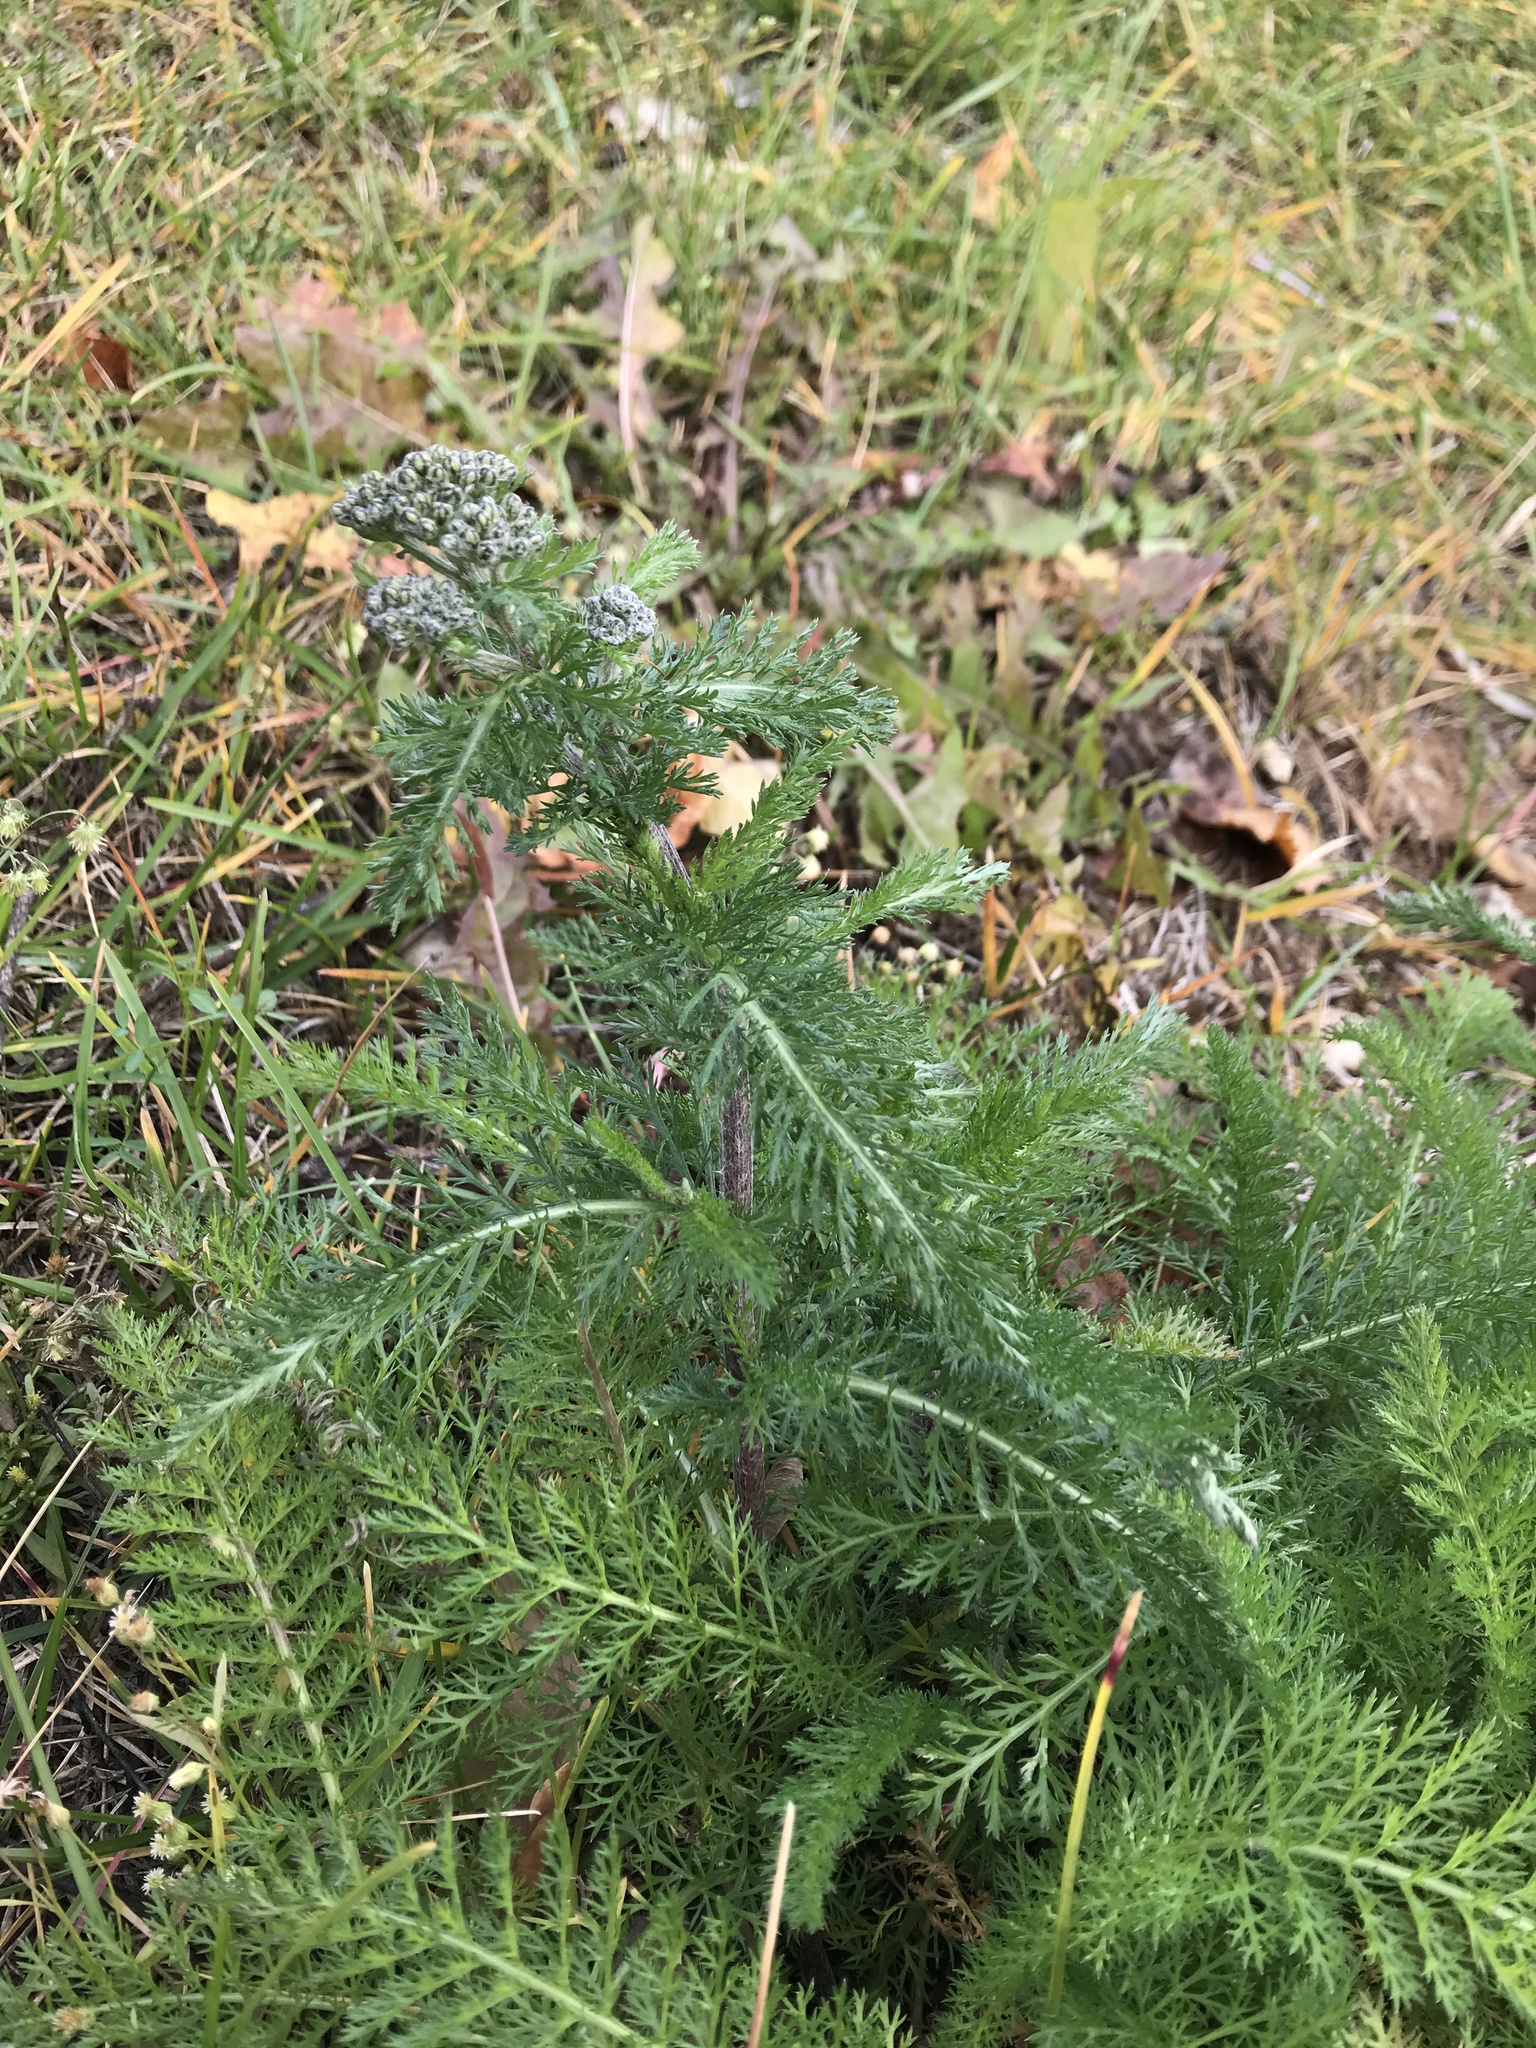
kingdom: Plantae
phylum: Tracheophyta
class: Magnoliopsida
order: Asterales
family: Asteraceae
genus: Achillea
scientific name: Achillea millefolium
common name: Yarrow
